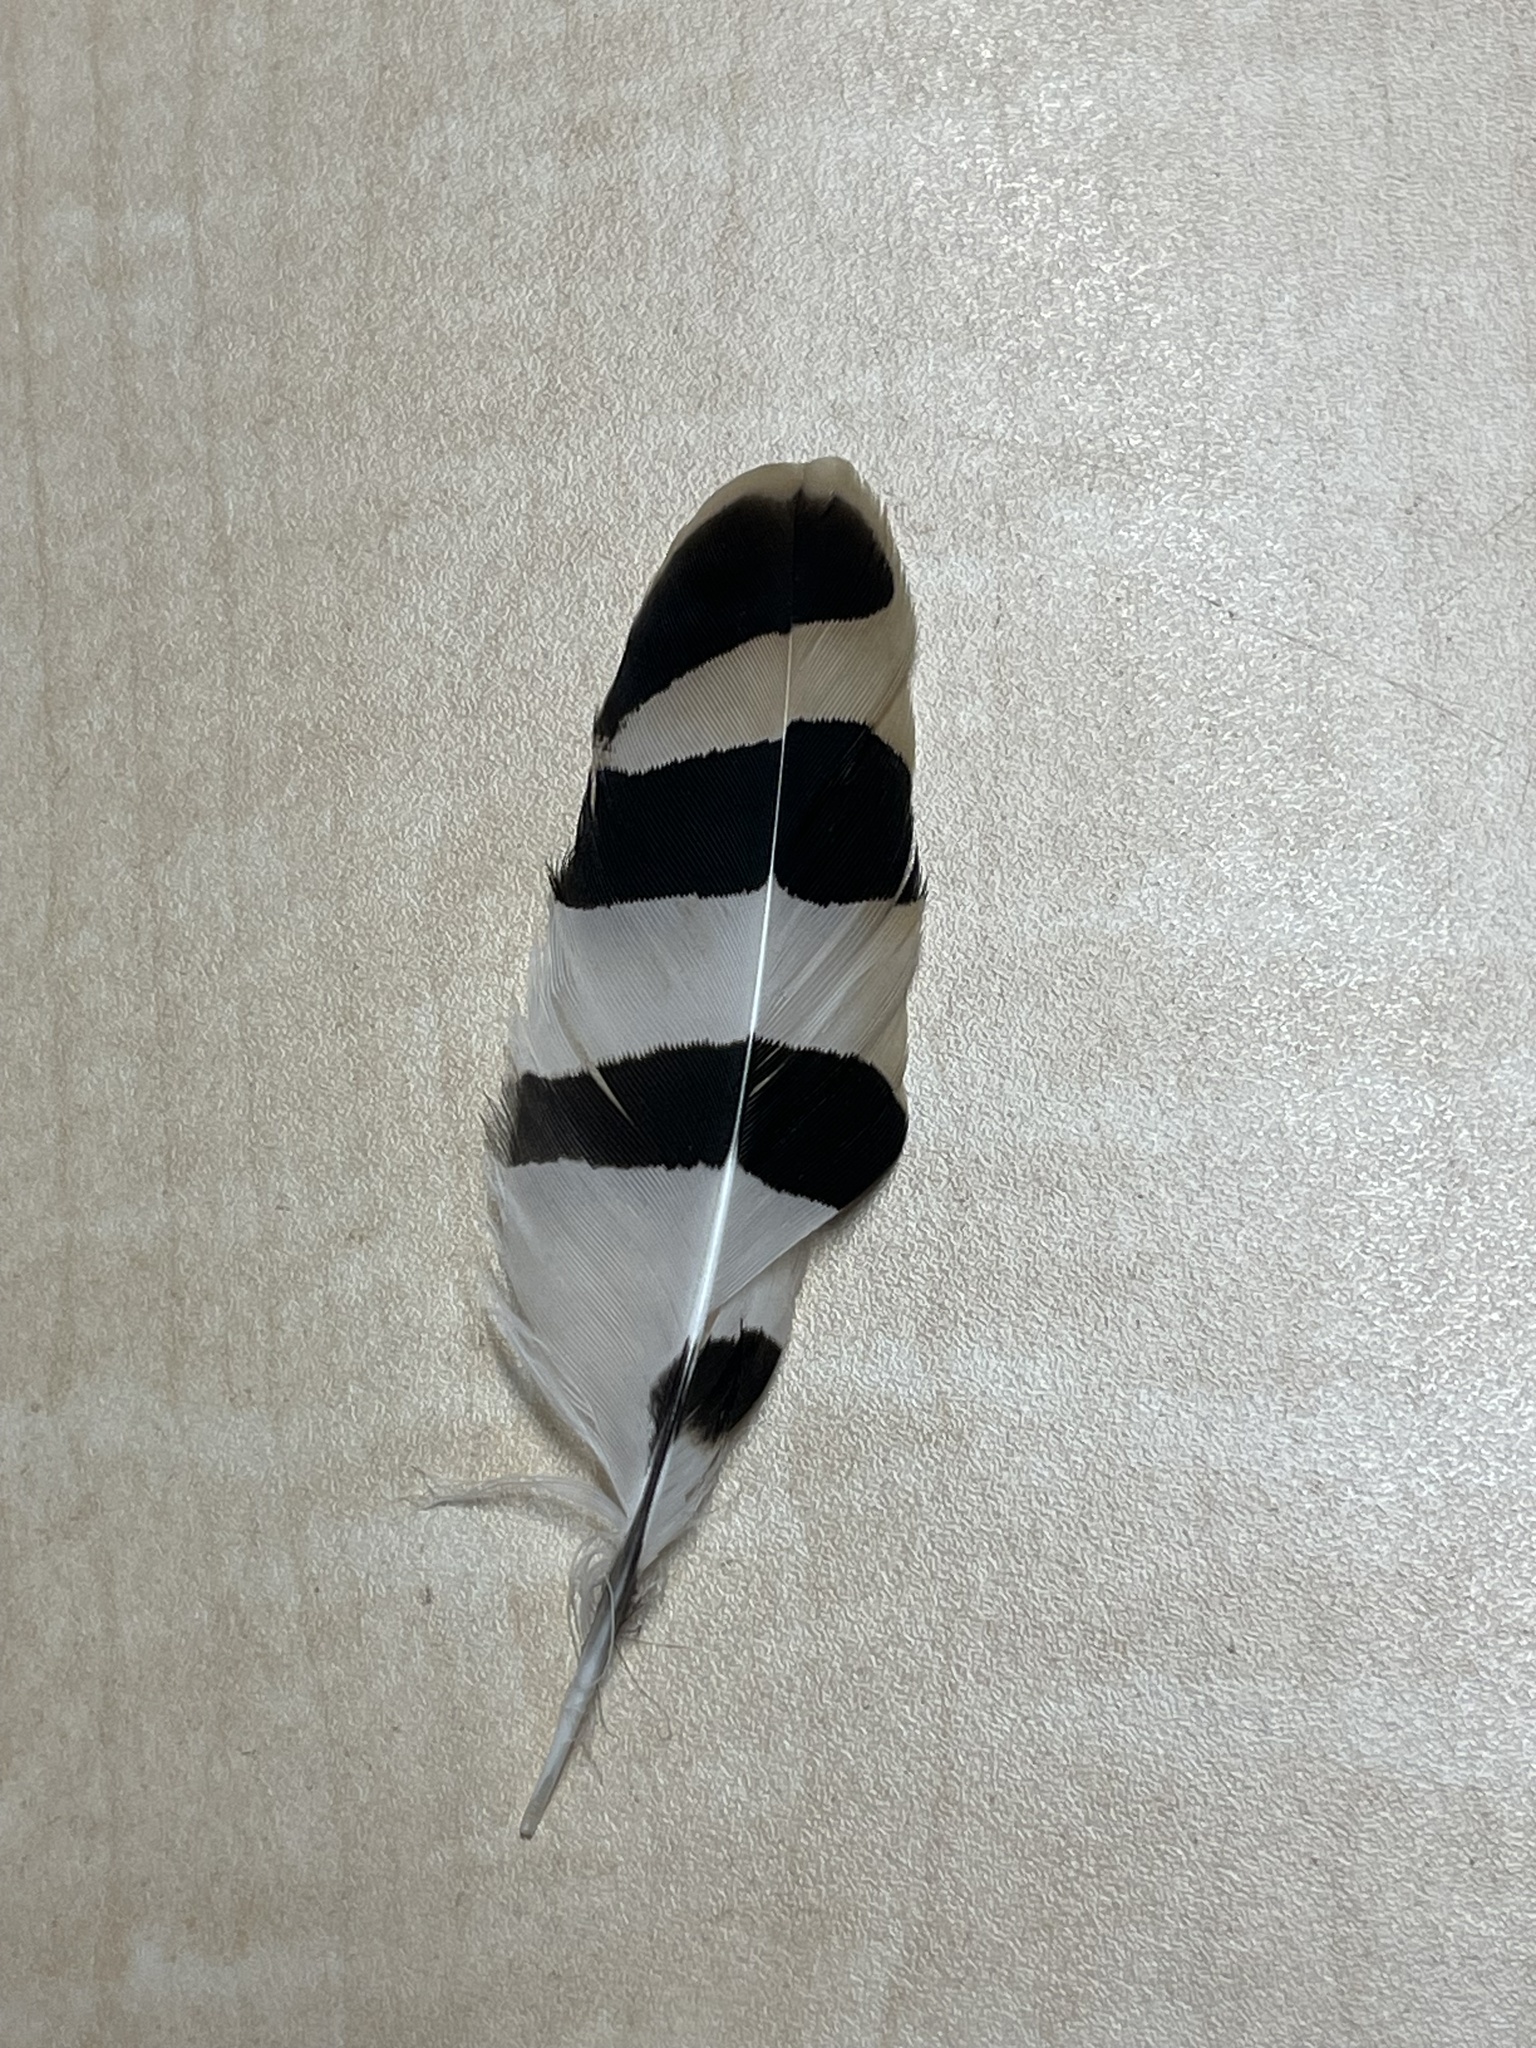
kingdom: Animalia
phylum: Chordata
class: Aves
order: Bucerotiformes
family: Upupidae
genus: Upupa
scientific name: Upupa epops
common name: Eurasian hoopoe
